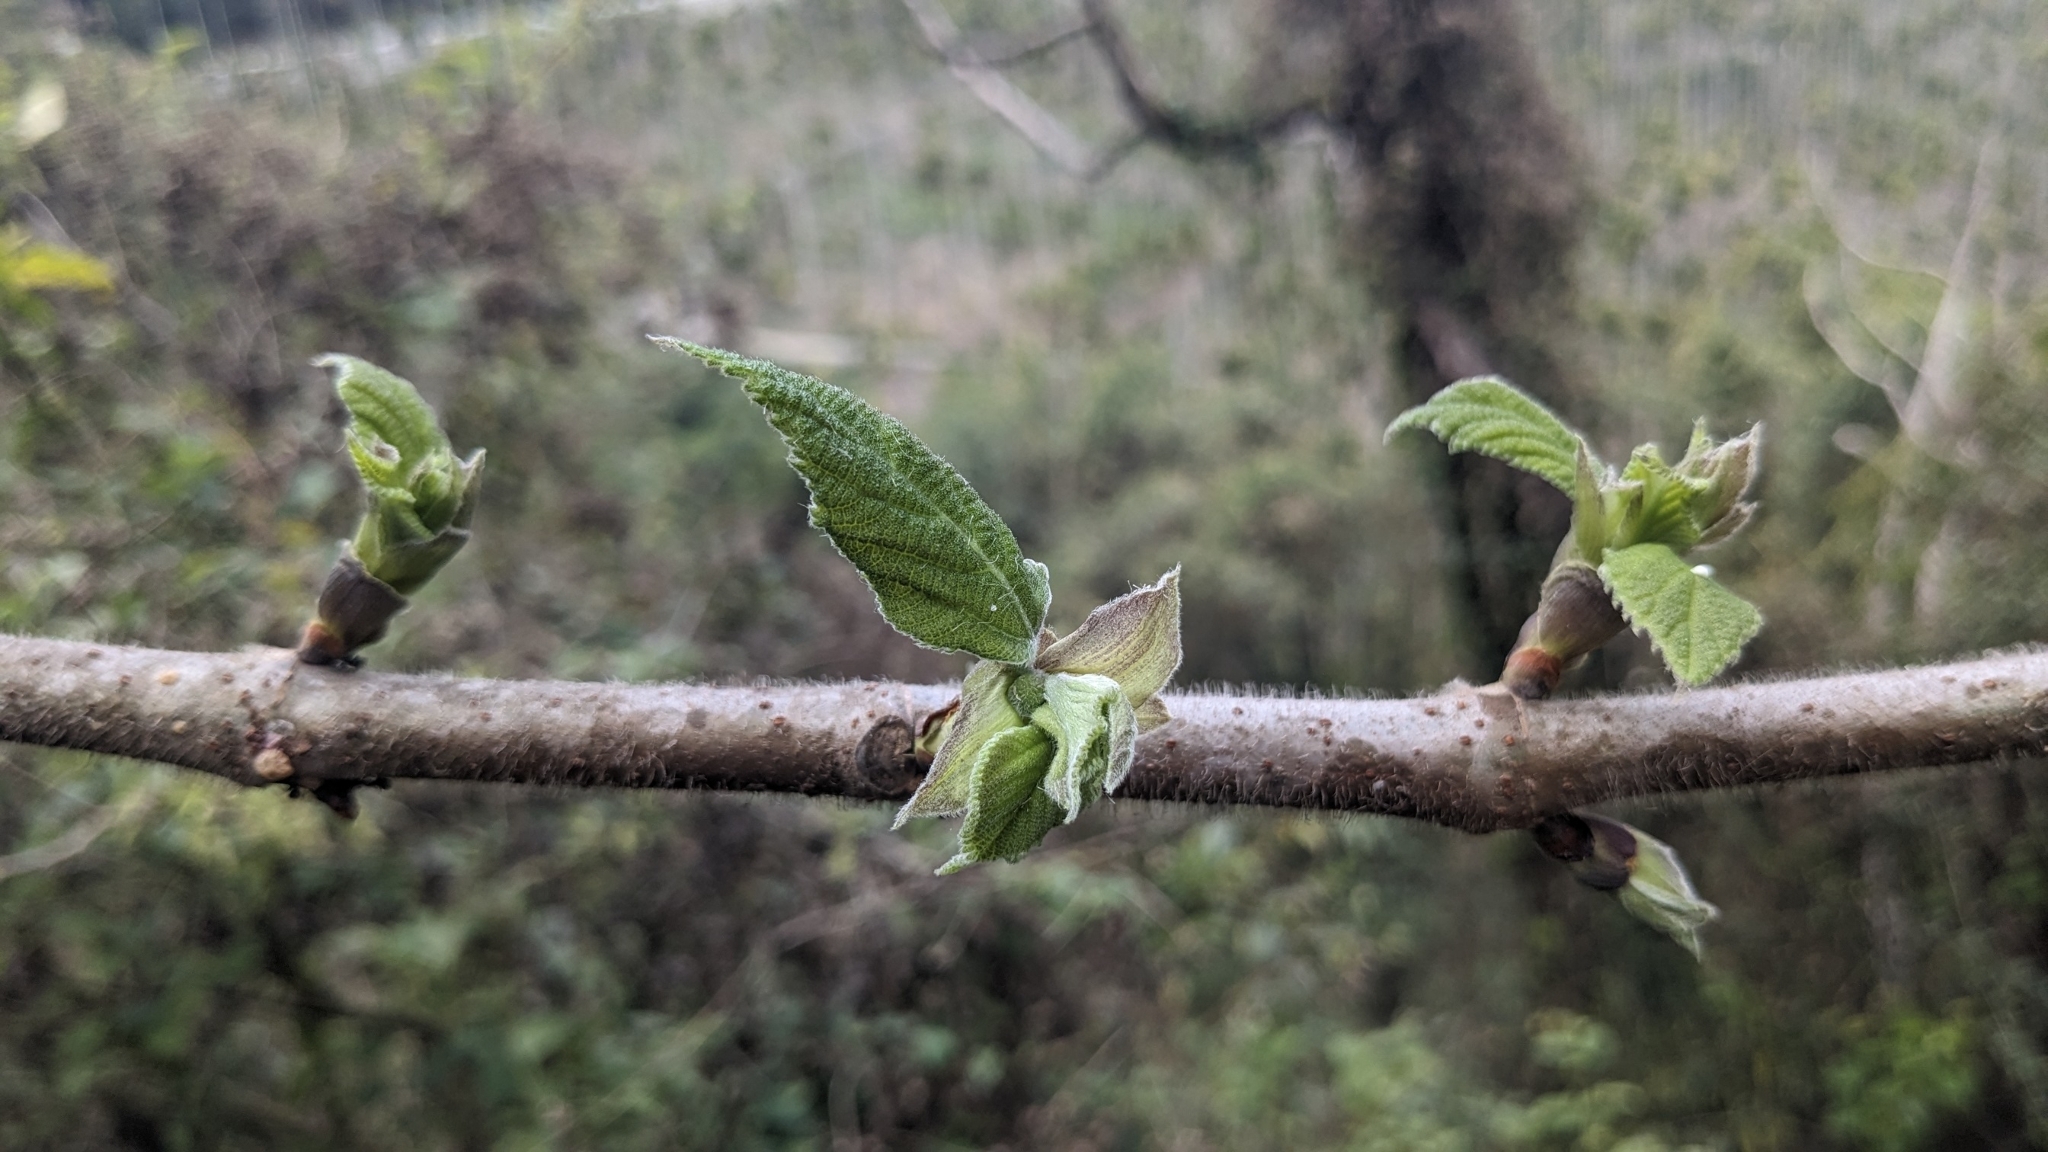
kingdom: Plantae
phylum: Tracheophyta
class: Magnoliopsida
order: Rosales
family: Moraceae
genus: Broussonetia
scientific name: Broussonetia papyrifera
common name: Paper mulberry
